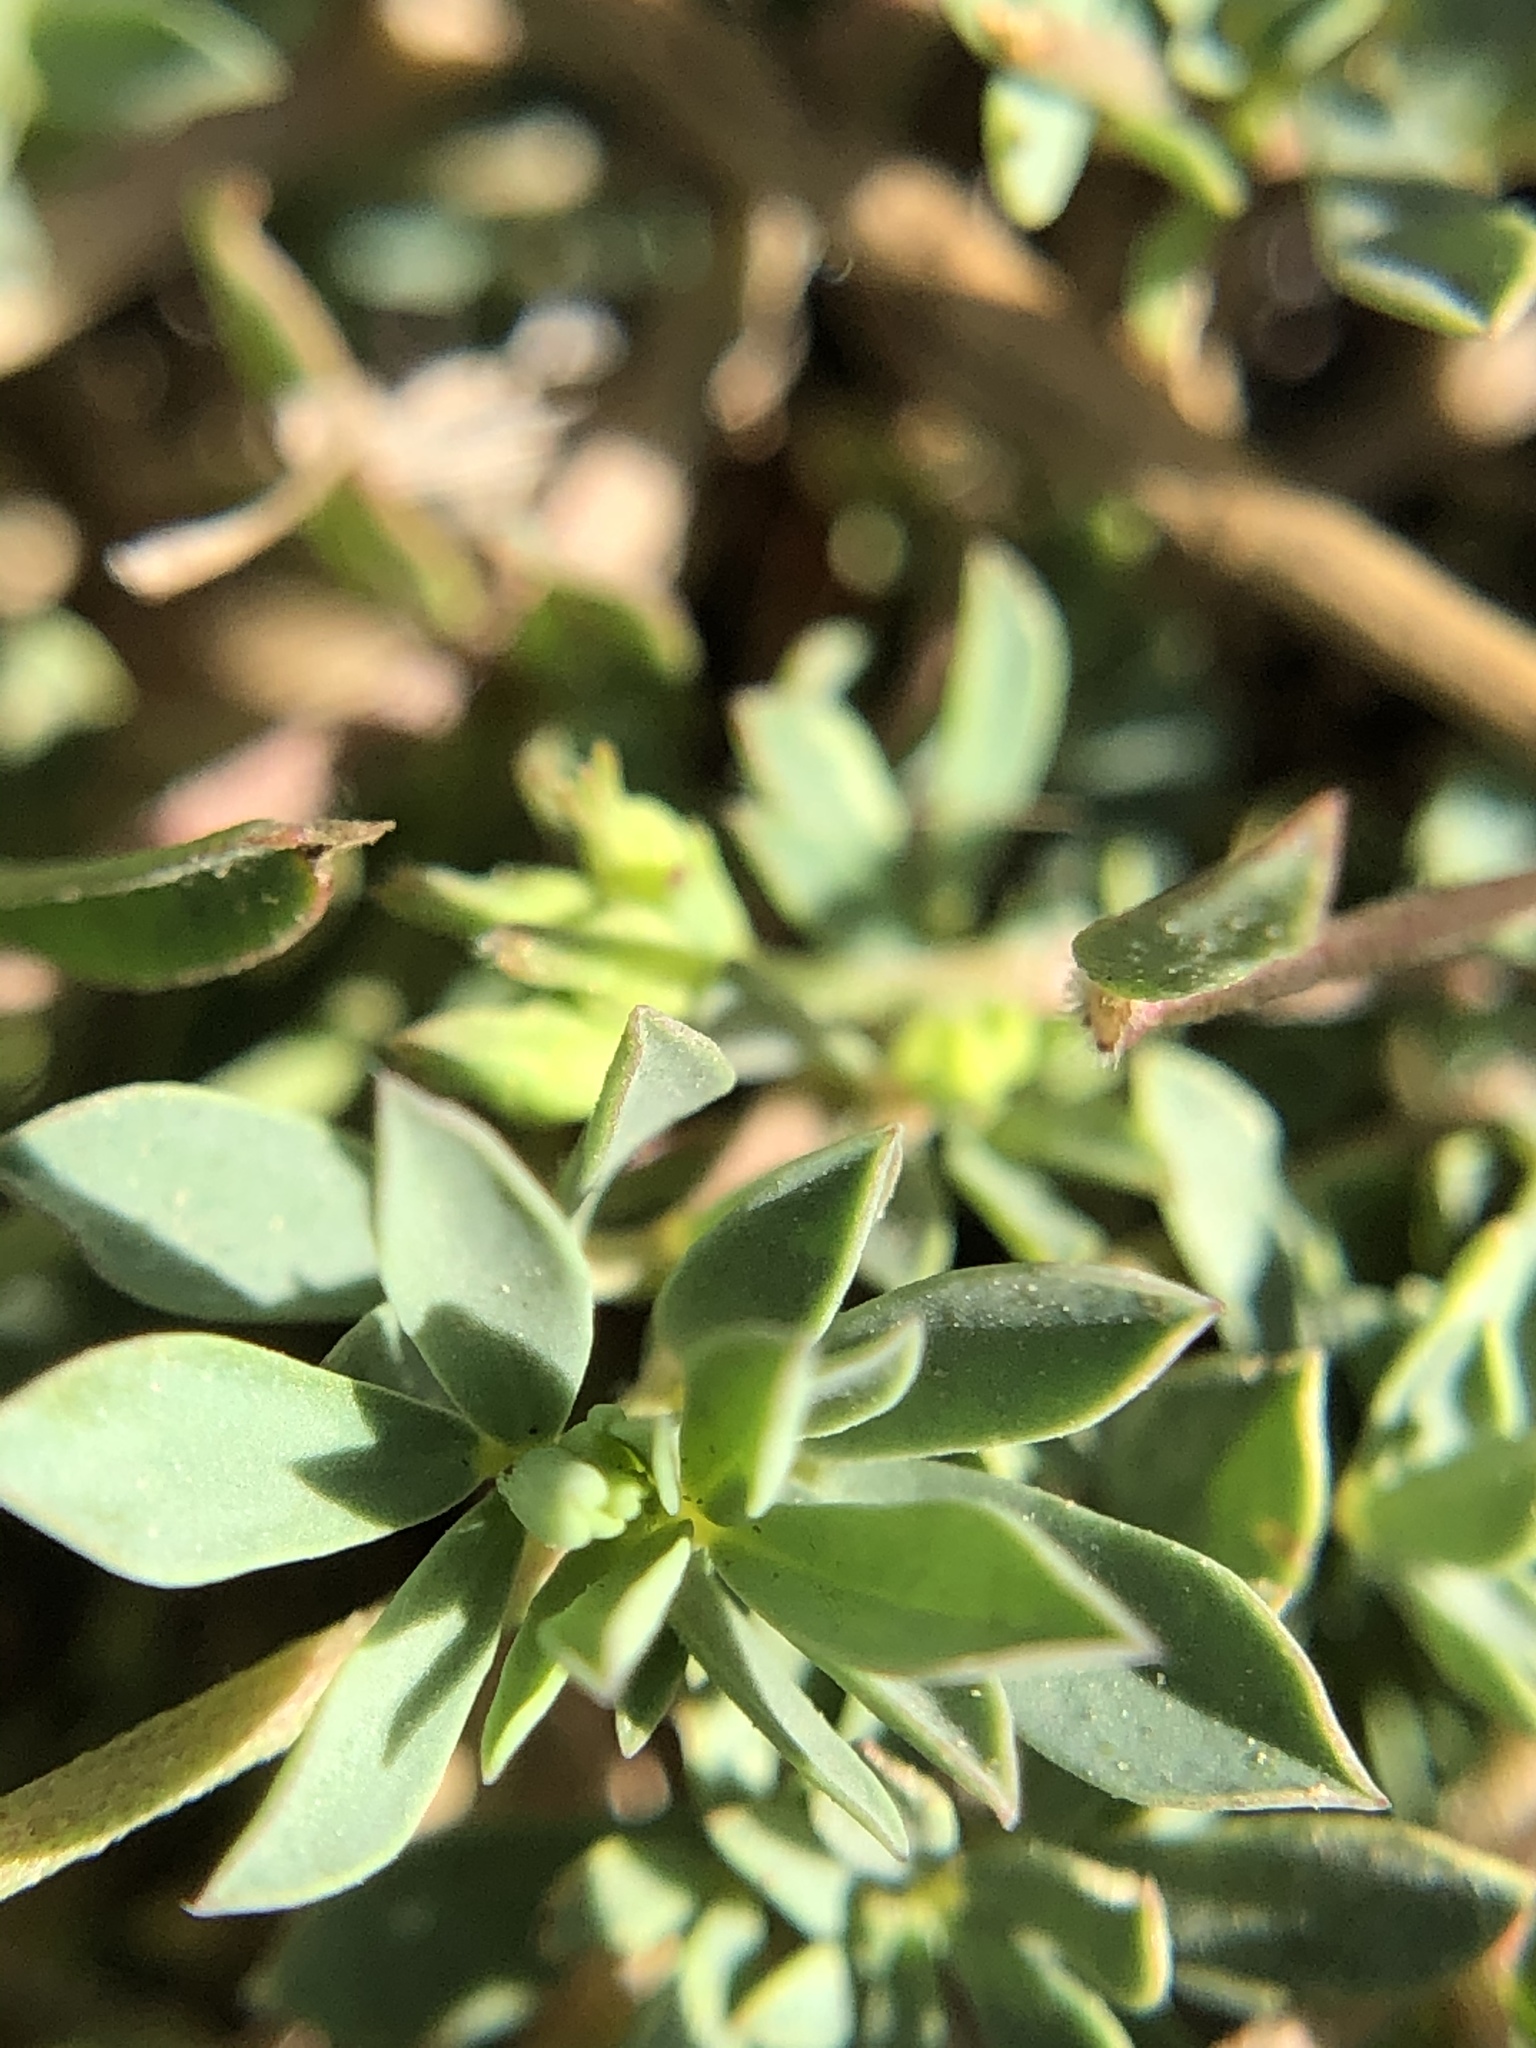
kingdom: Plantae
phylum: Tracheophyta
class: Magnoliopsida
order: Fabales
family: Fabaceae
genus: Lotus
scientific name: Lotus corniculatus
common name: Common bird's-foot-trefoil
